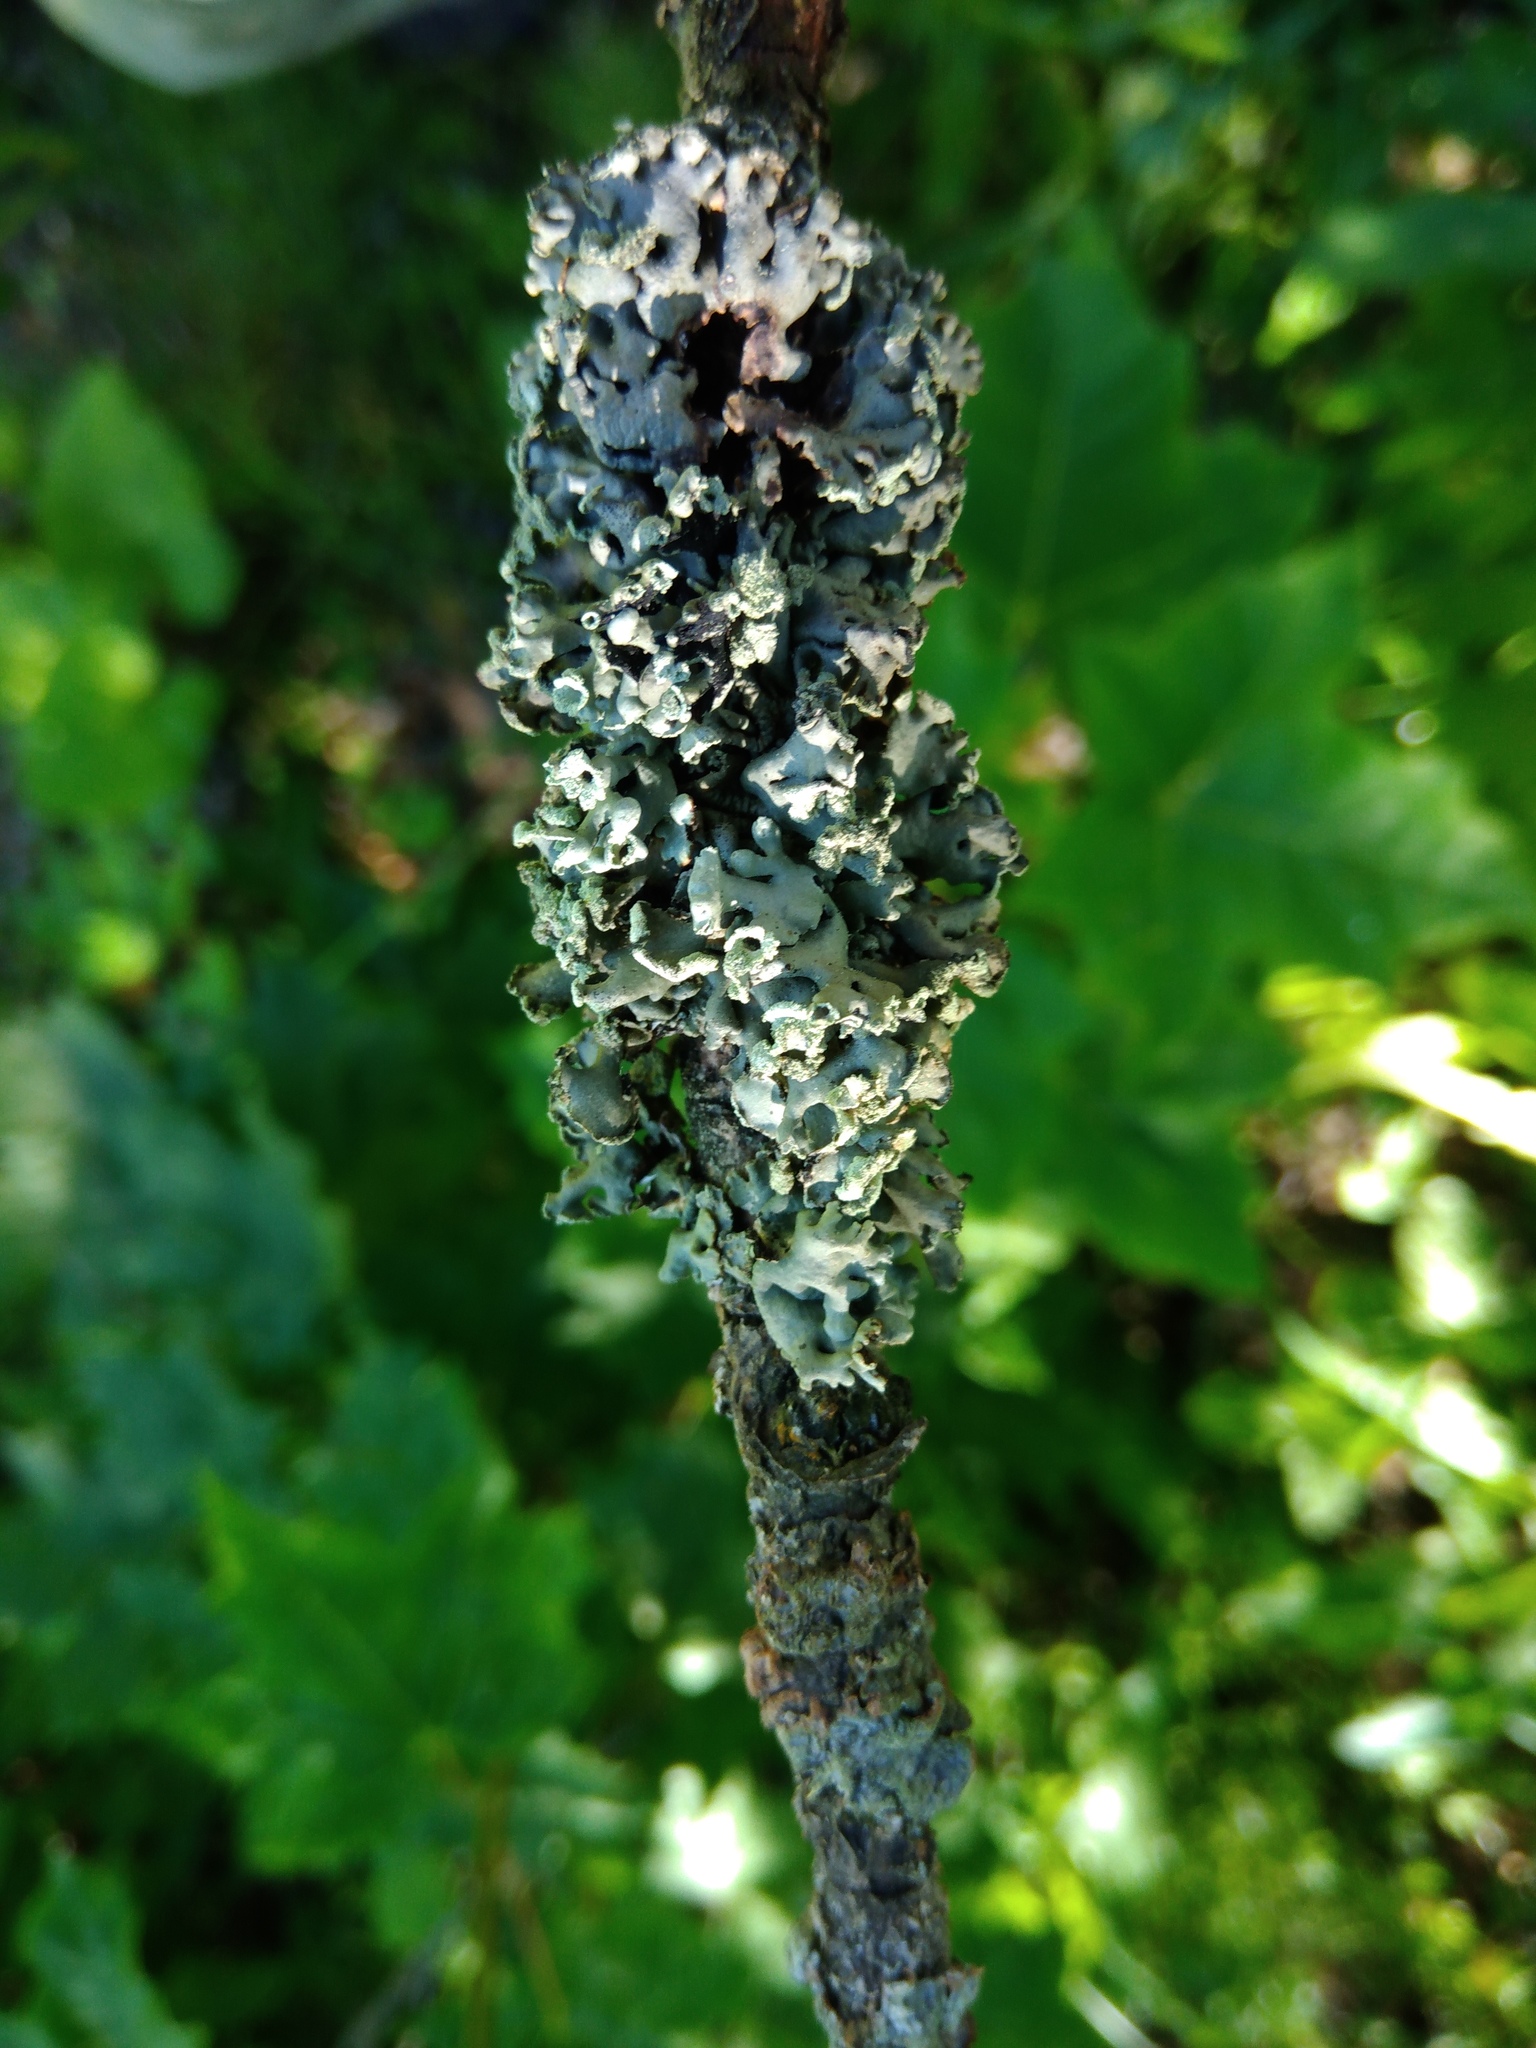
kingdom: Fungi
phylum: Ascomycota
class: Lecanoromycetes
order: Lecanorales
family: Parmeliaceae
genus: Hypogymnia
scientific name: Hypogymnia physodes
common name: Dark crottle
